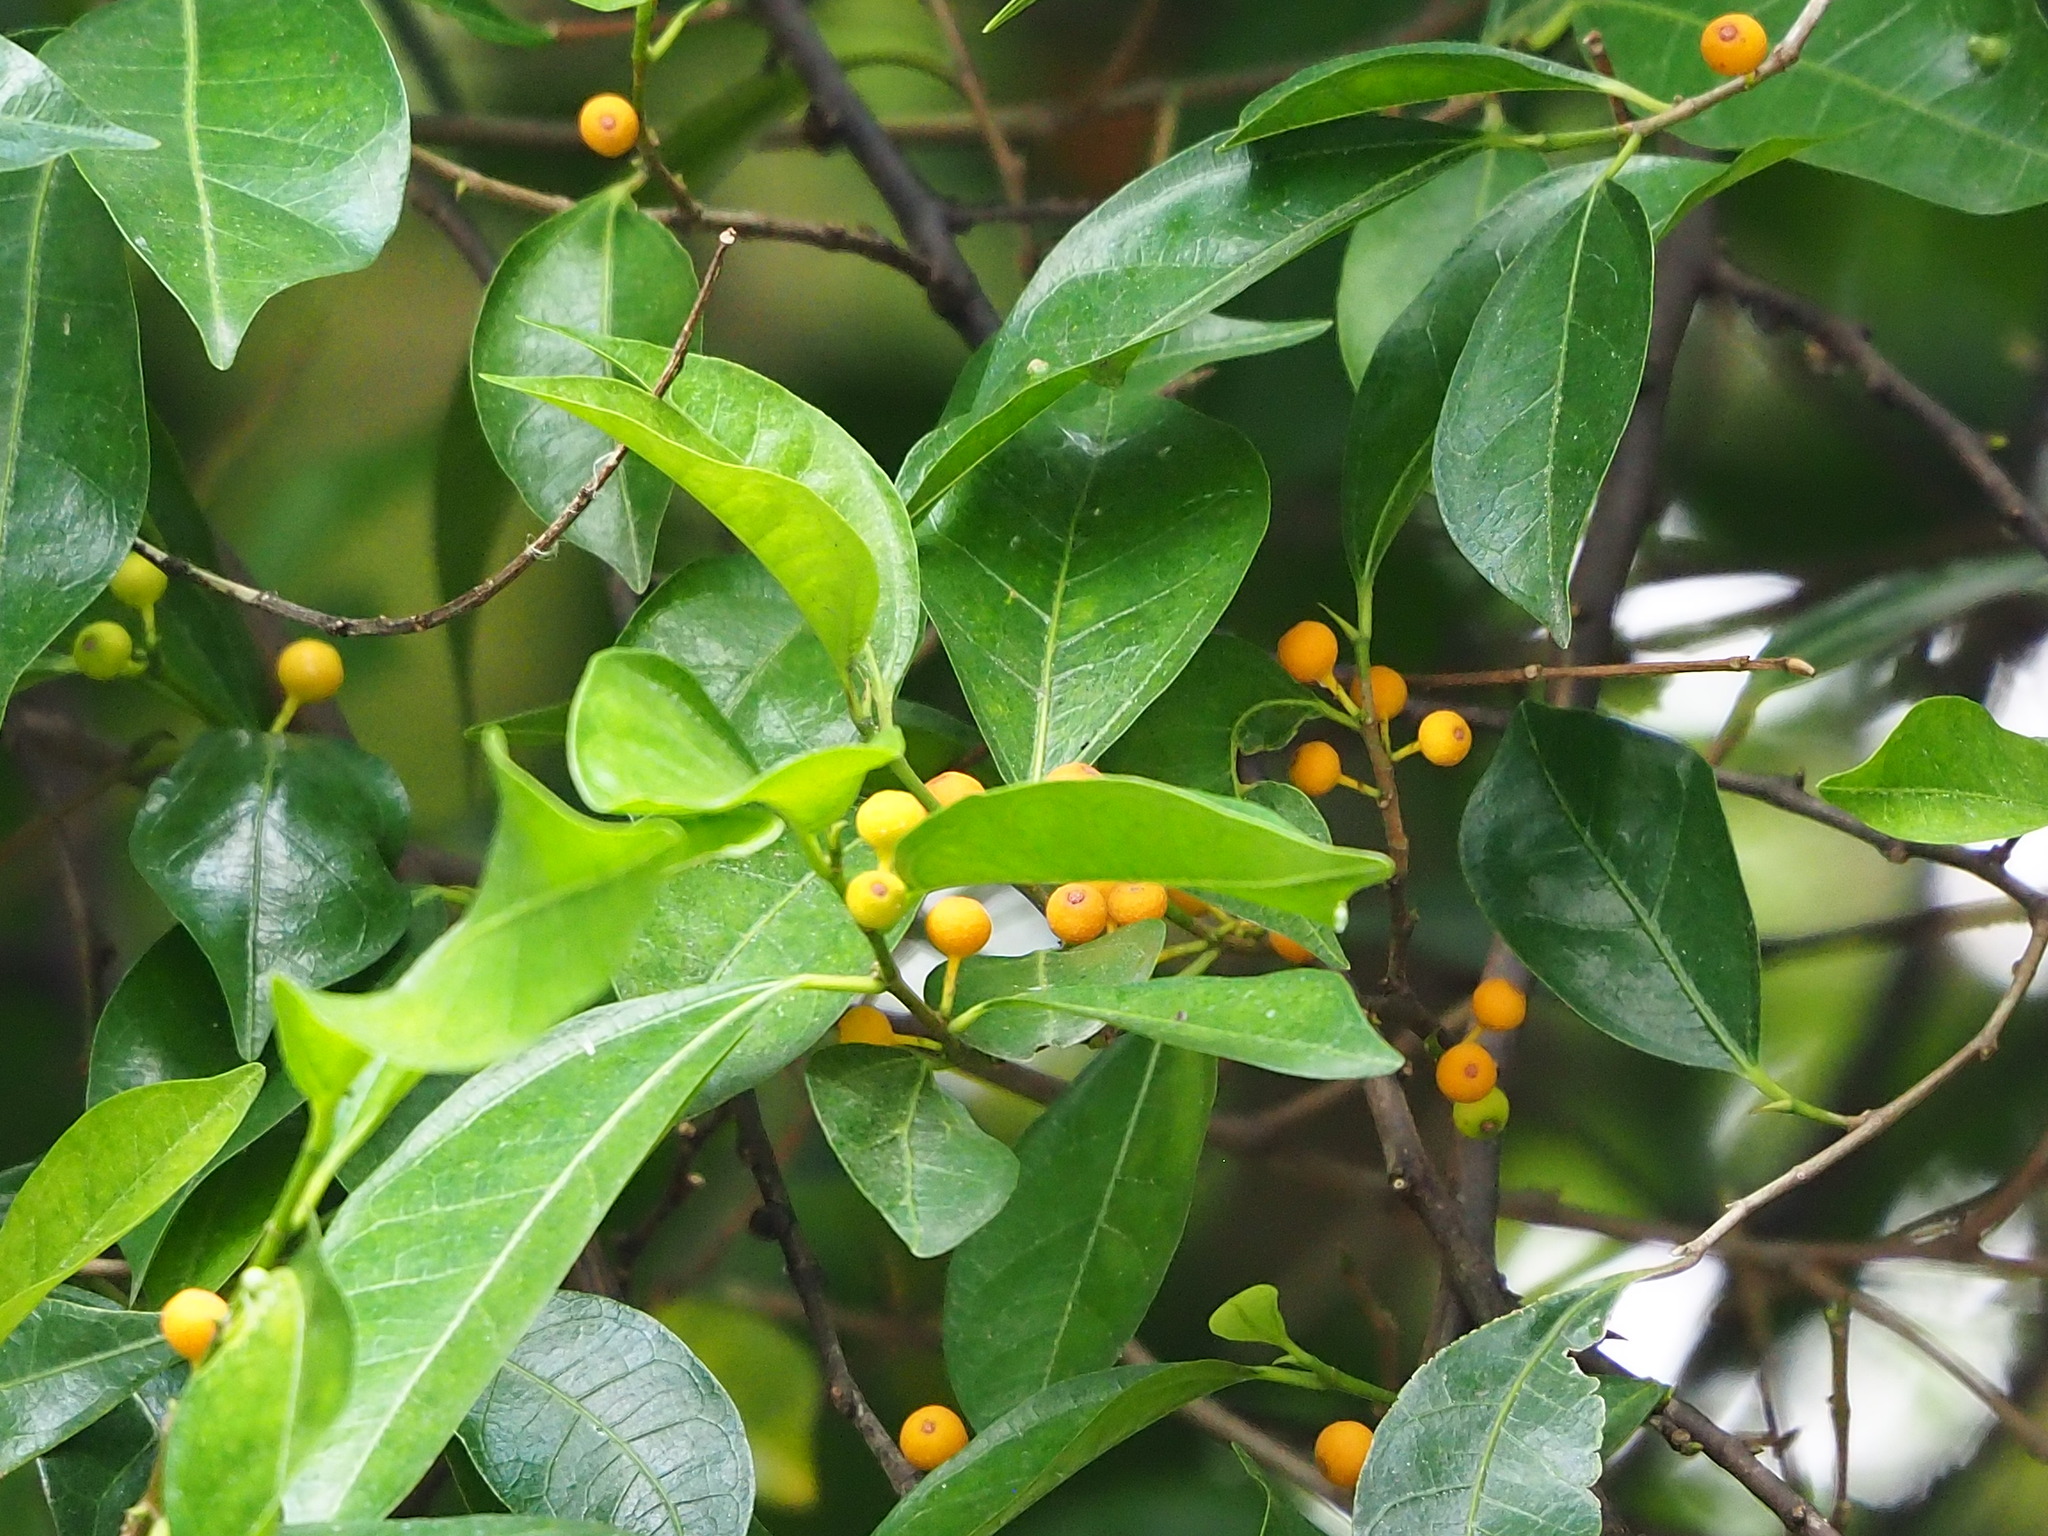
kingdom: Plantae
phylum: Tracheophyta
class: Magnoliopsida
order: Rosales
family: Moraceae
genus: Ficus
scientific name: Ficus ampelos
